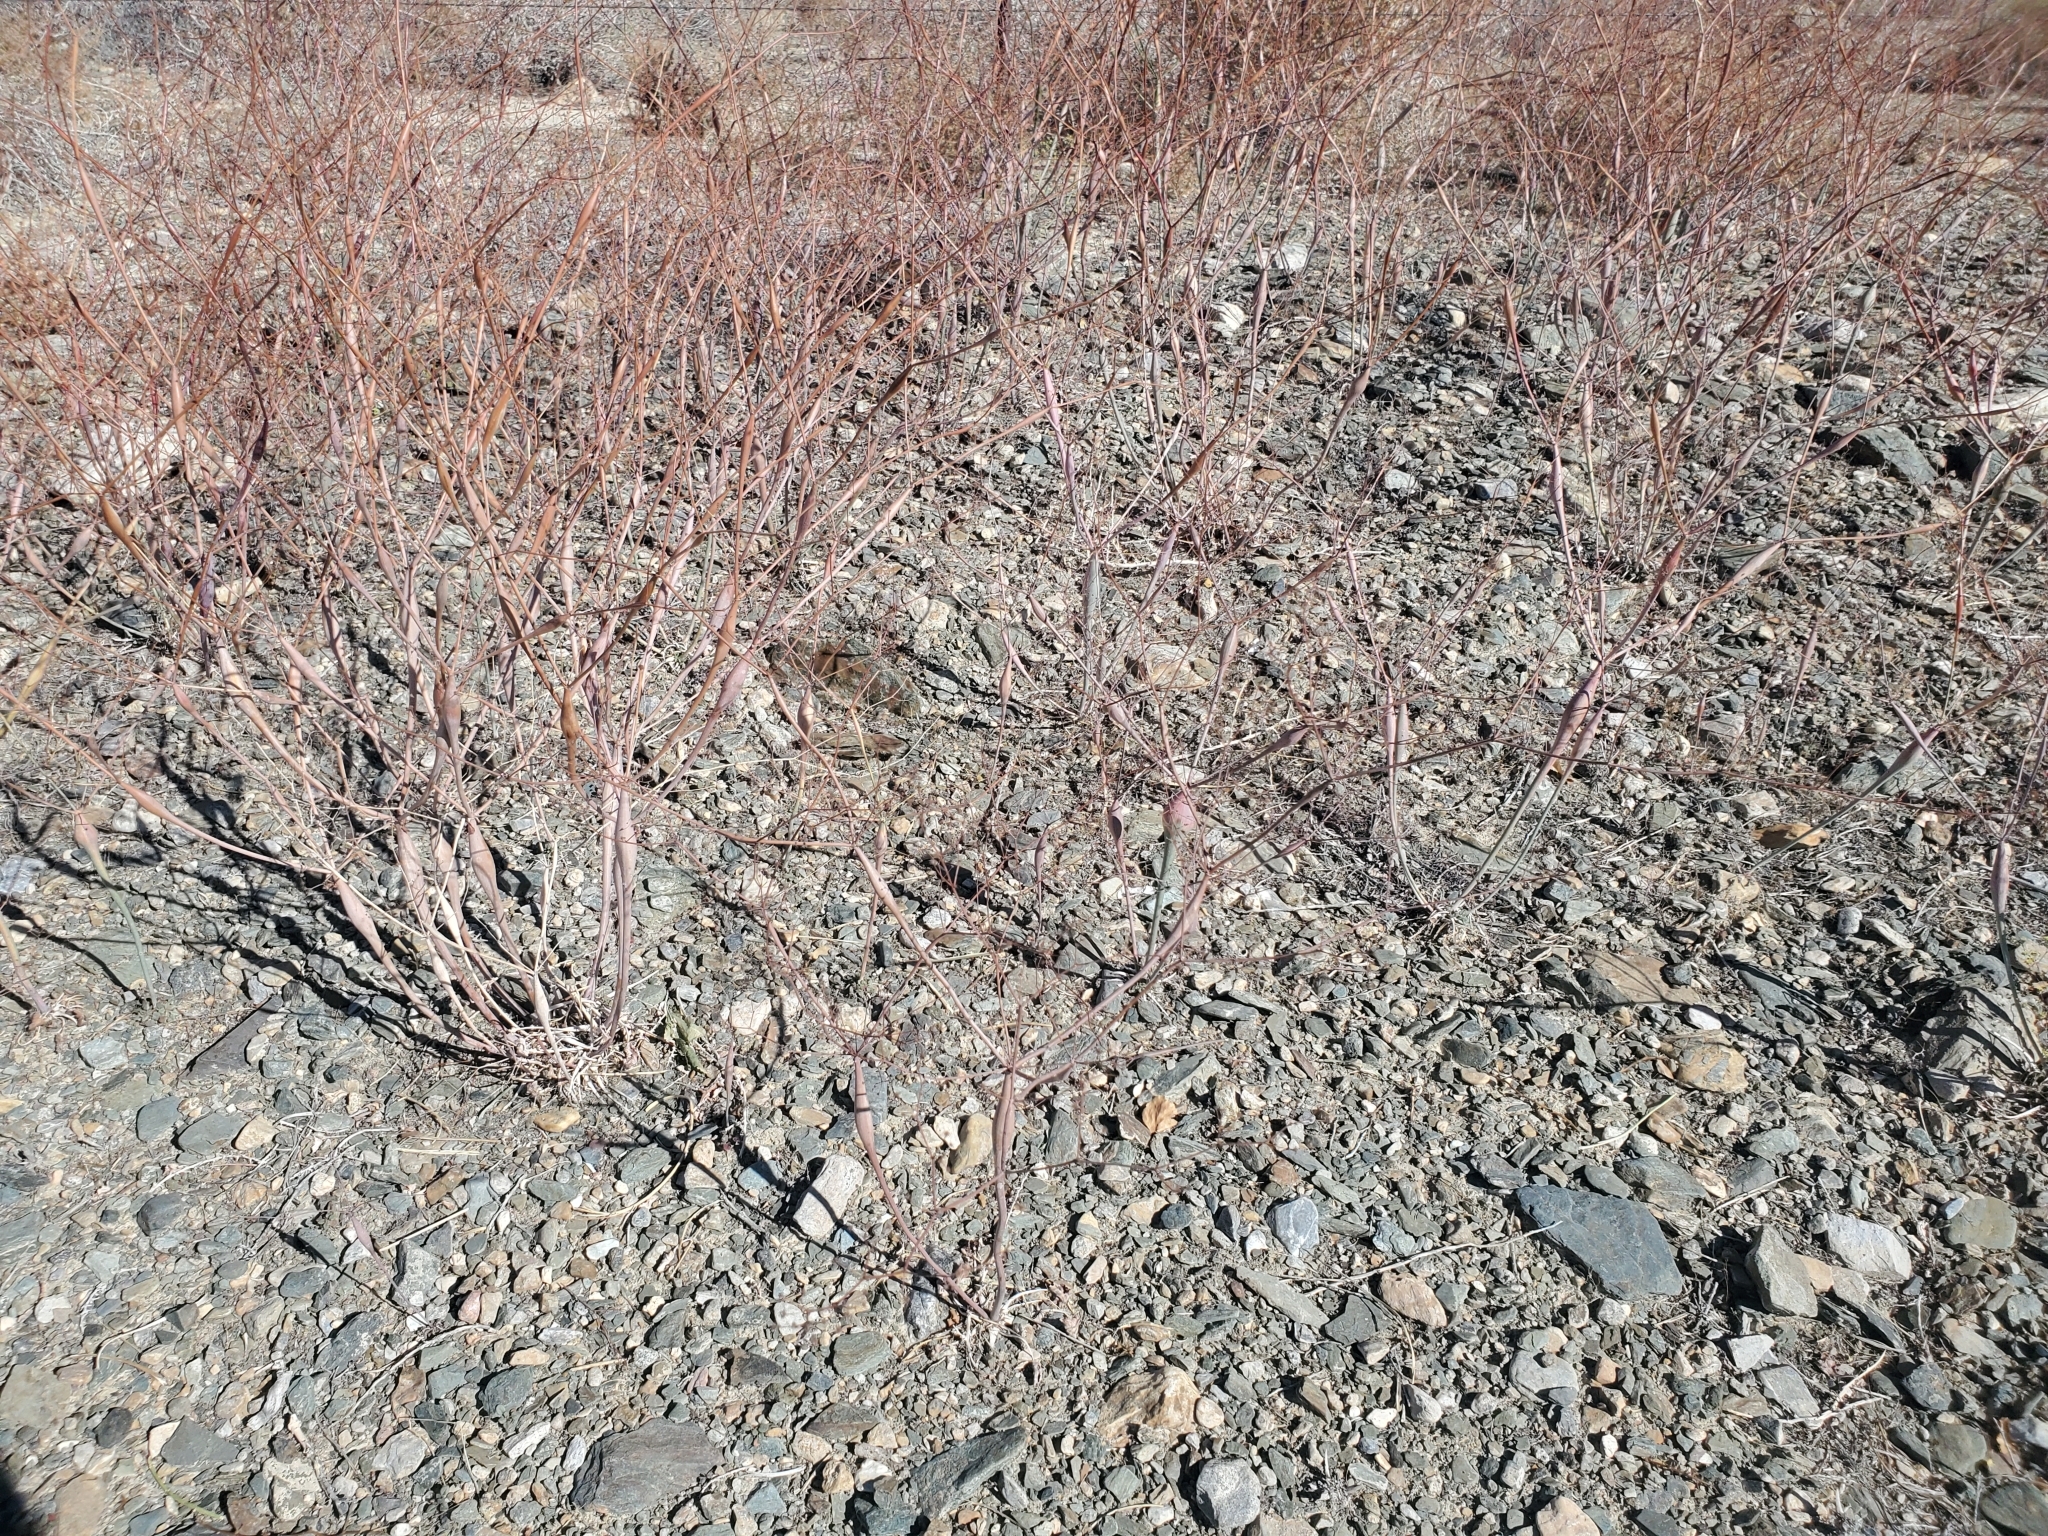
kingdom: Plantae
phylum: Tracheophyta
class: Magnoliopsida
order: Caryophyllales
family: Polygonaceae
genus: Eriogonum
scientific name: Eriogonum inflatum
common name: Desert trumpet
